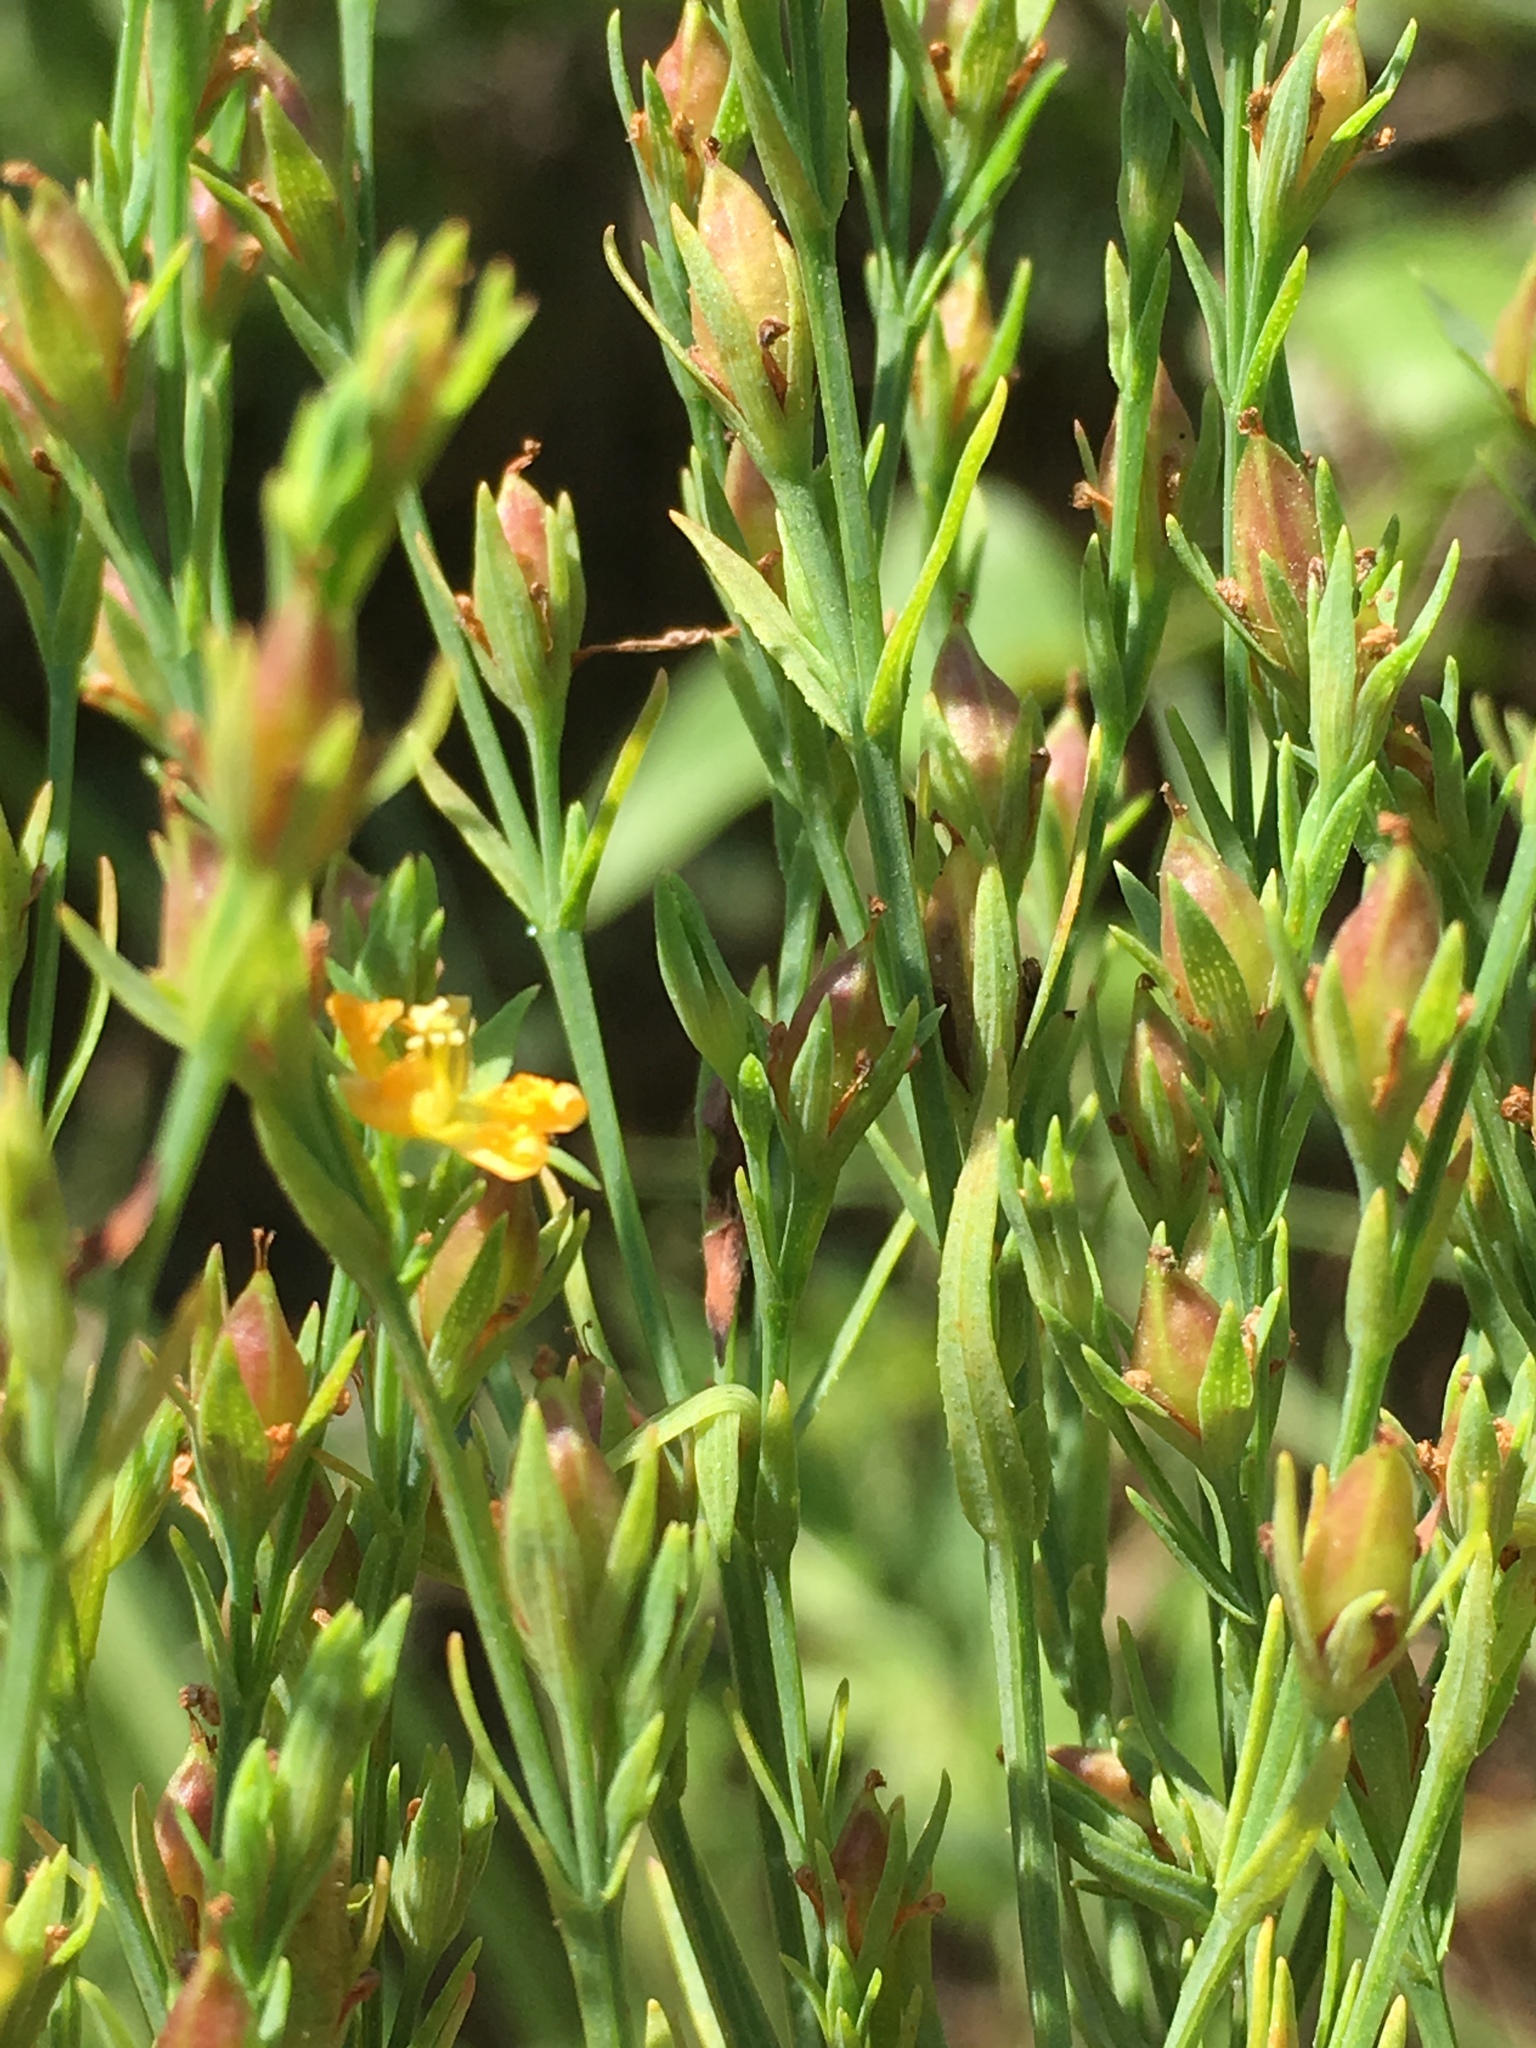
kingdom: Plantae
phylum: Tracheophyta
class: Magnoliopsida
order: Malpighiales
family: Hypericaceae
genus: Hypericum
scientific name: Hypericum drummondii
